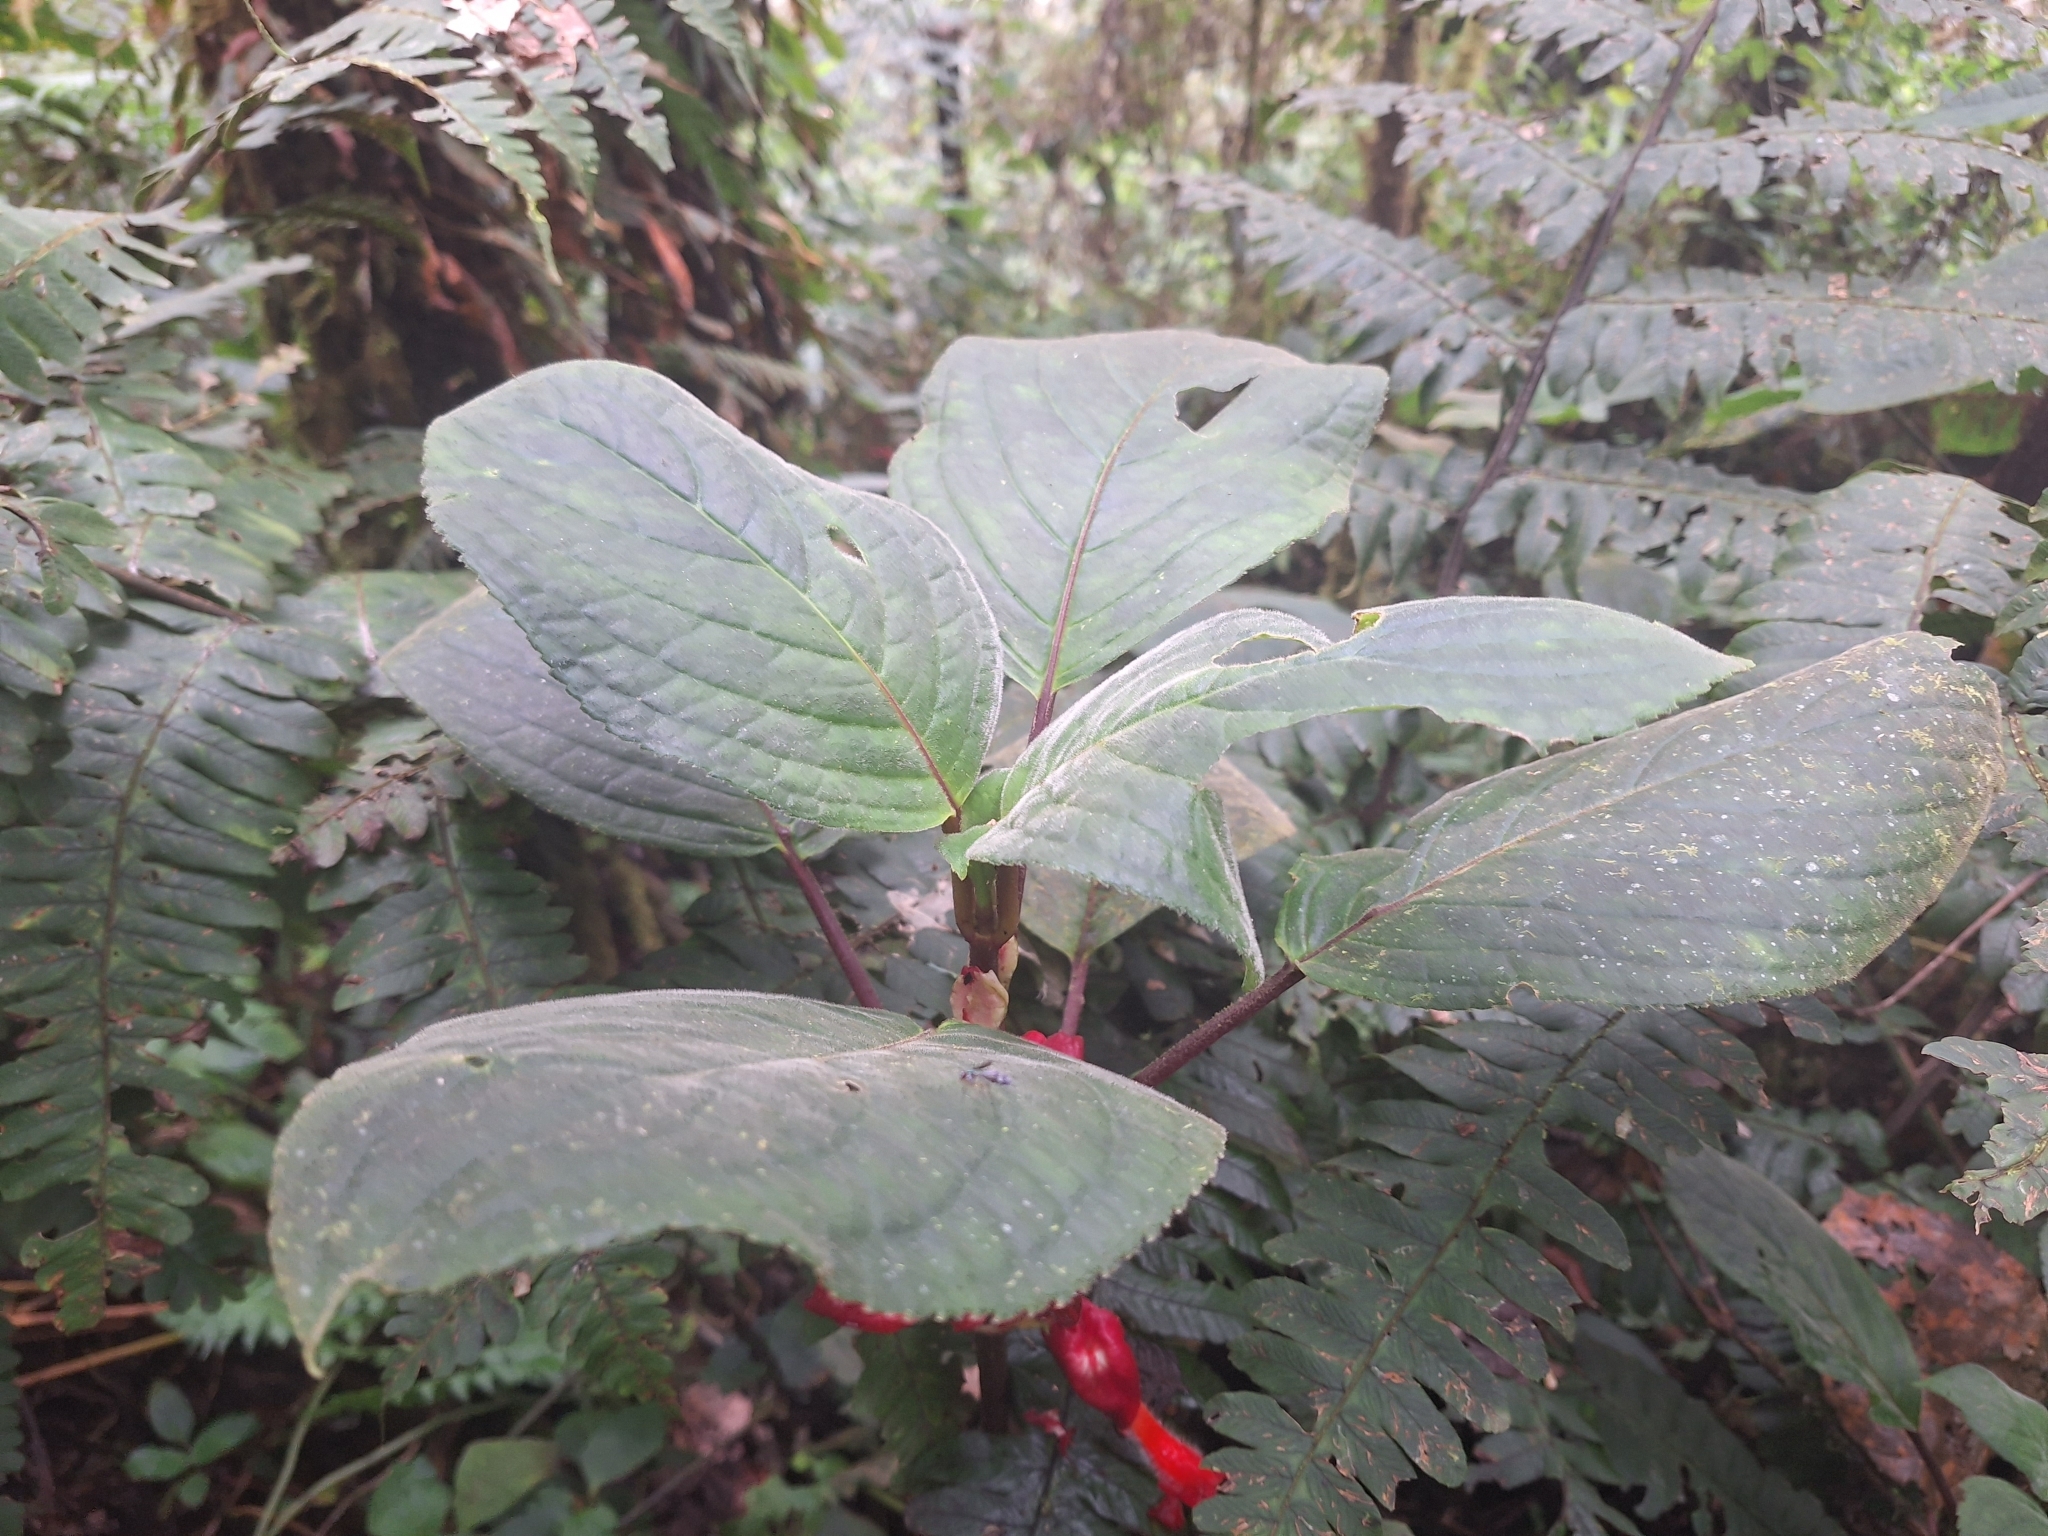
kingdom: Plantae
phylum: Tracheophyta
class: Magnoliopsida
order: Lamiales
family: Gesneriaceae
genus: Glossoloma
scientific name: Glossoloma oblongicalyx
